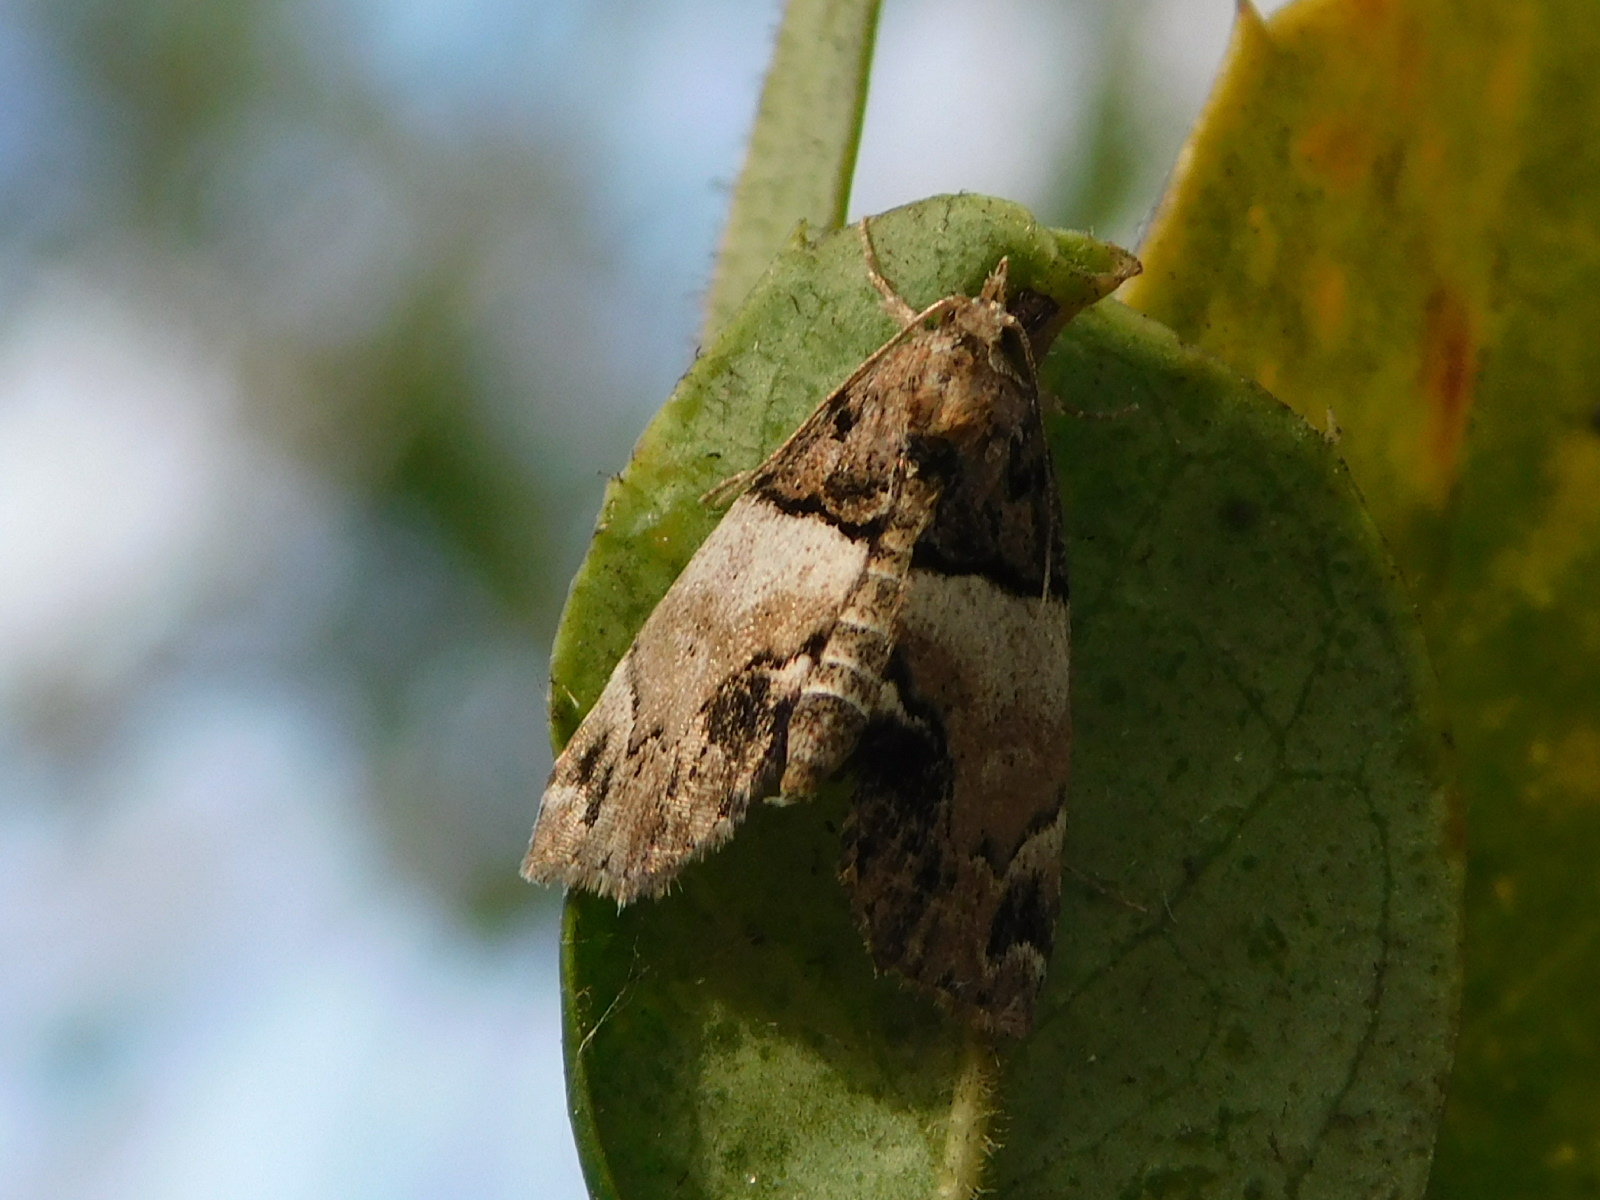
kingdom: Animalia
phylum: Arthropoda
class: Insecta
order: Lepidoptera
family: Erebidae
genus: Cutina
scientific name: Cutina distincta
